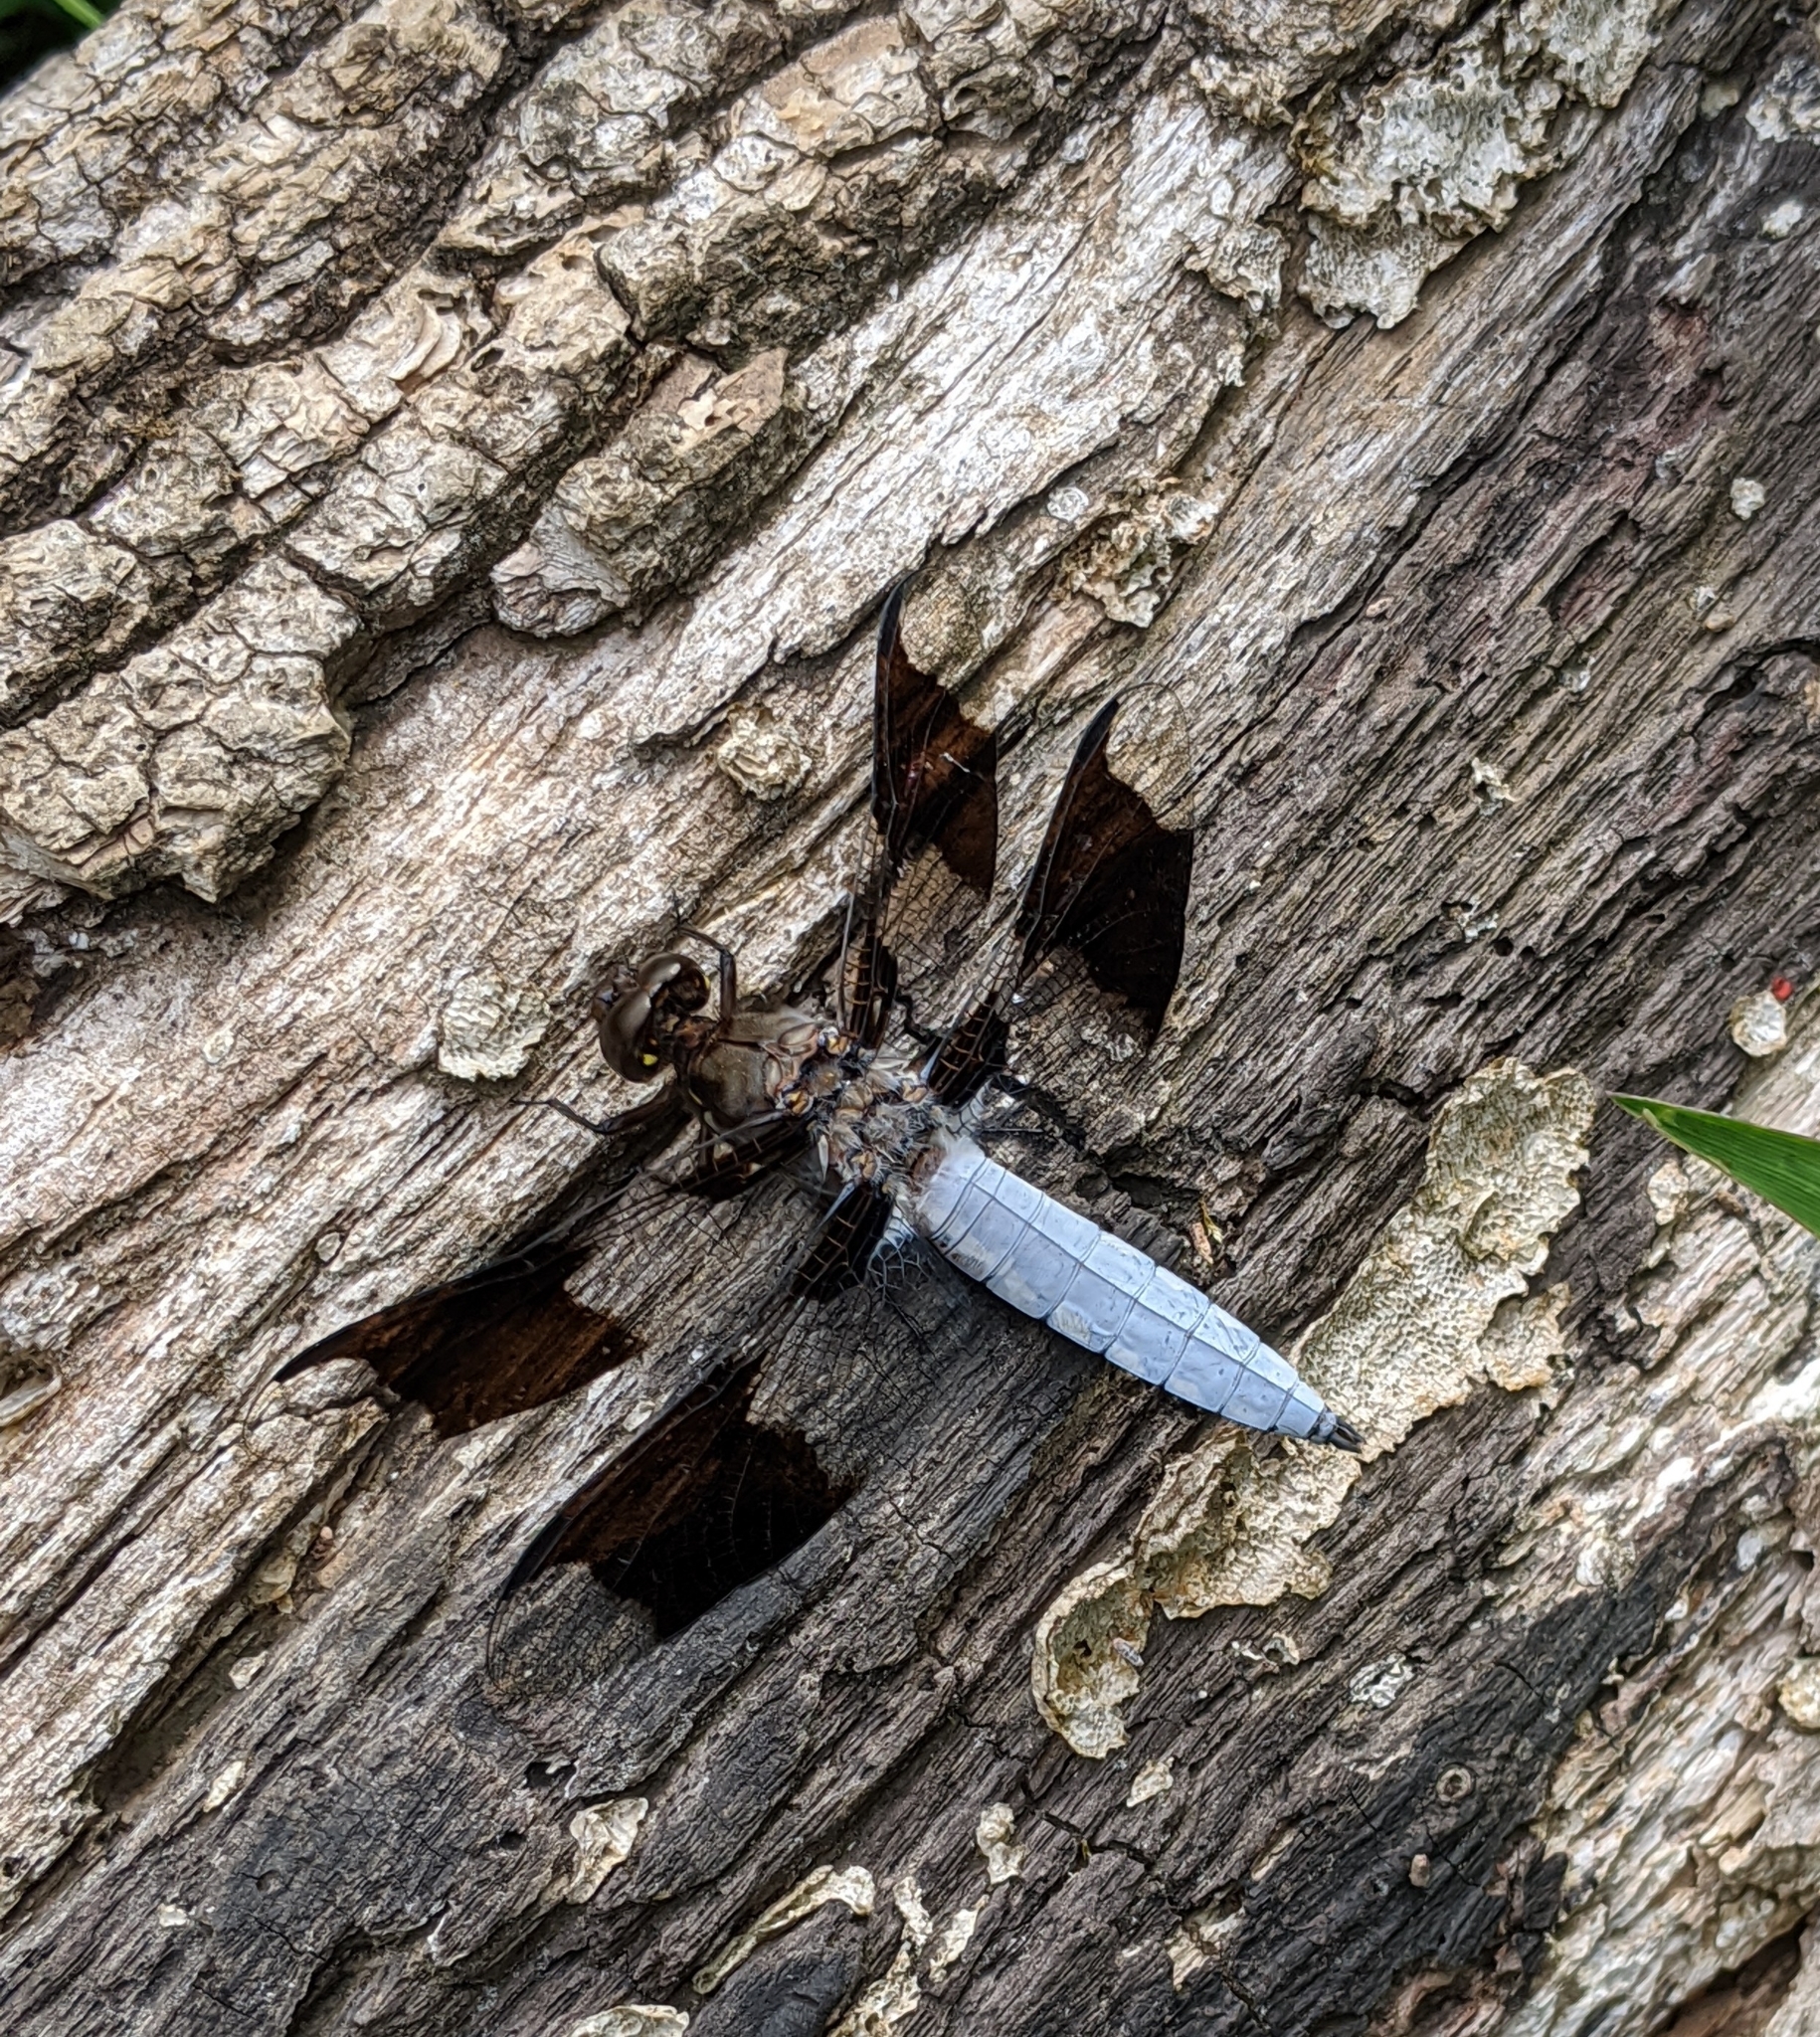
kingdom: Animalia
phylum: Arthropoda
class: Insecta
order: Odonata
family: Libellulidae
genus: Plathemis
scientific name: Plathemis lydia
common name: Common whitetail
